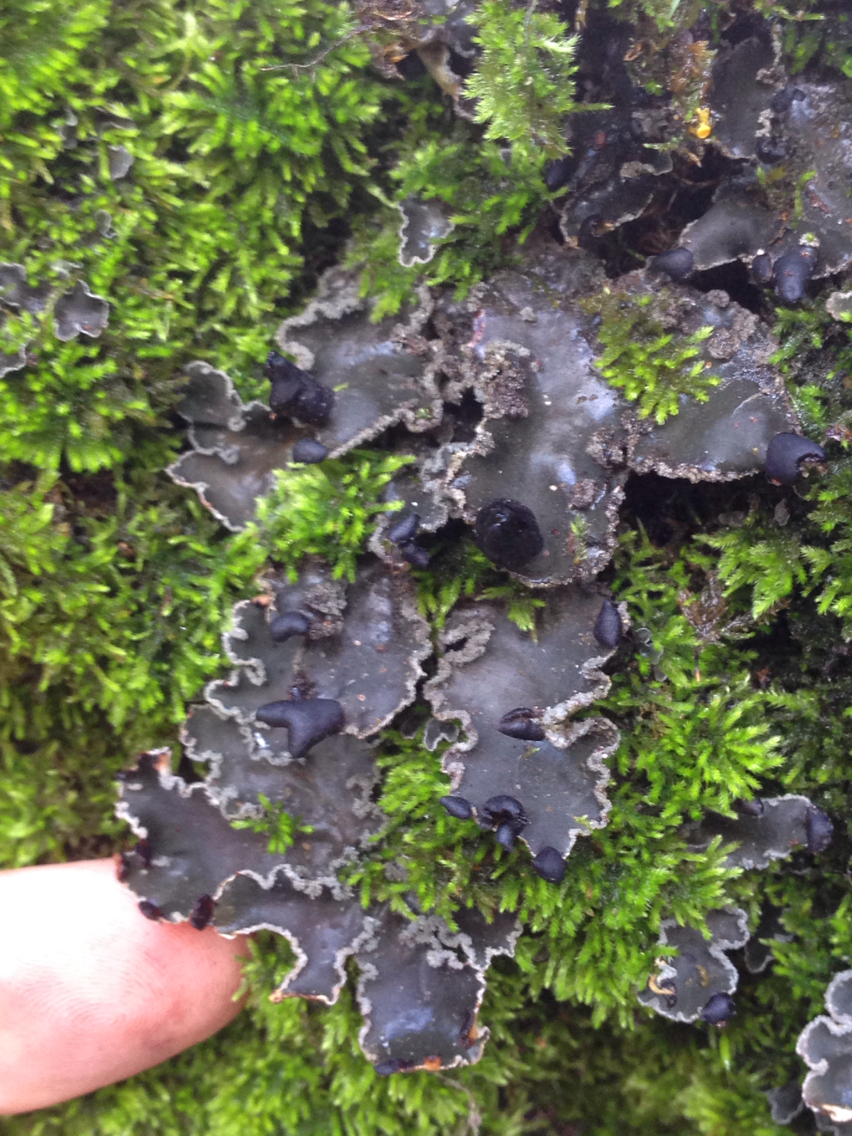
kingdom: Fungi
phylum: Ascomycota
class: Lecanoromycetes
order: Peltigerales
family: Peltigeraceae
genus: Peltigera
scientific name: Peltigera collina
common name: Gritty tree pelt lichen
